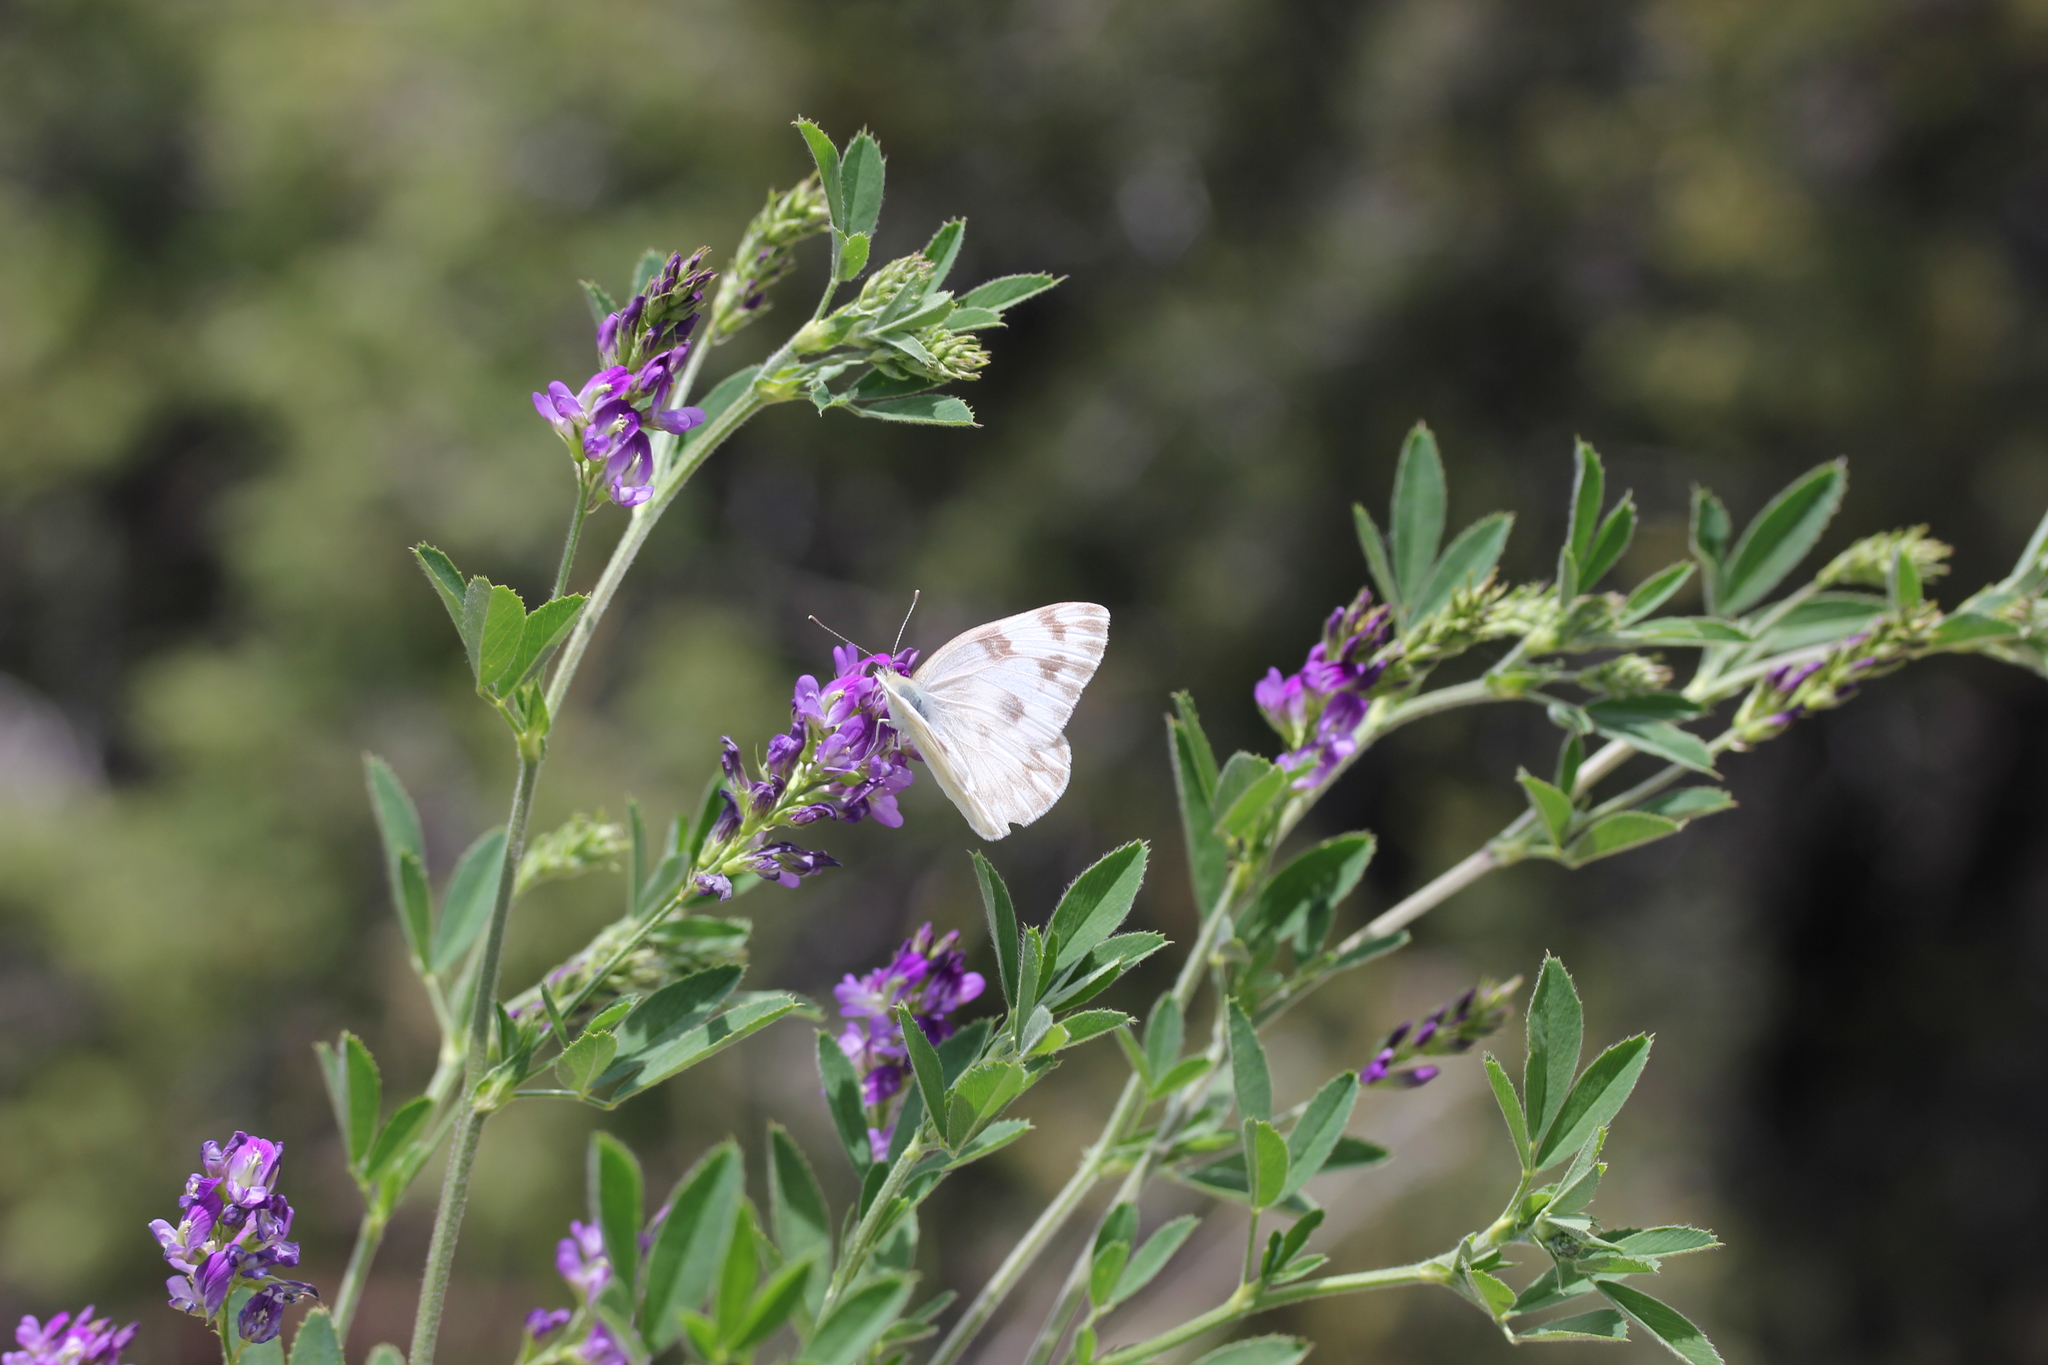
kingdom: Plantae
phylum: Tracheophyta
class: Magnoliopsida
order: Fabales
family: Fabaceae
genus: Medicago
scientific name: Medicago sativa
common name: Alfalfa
